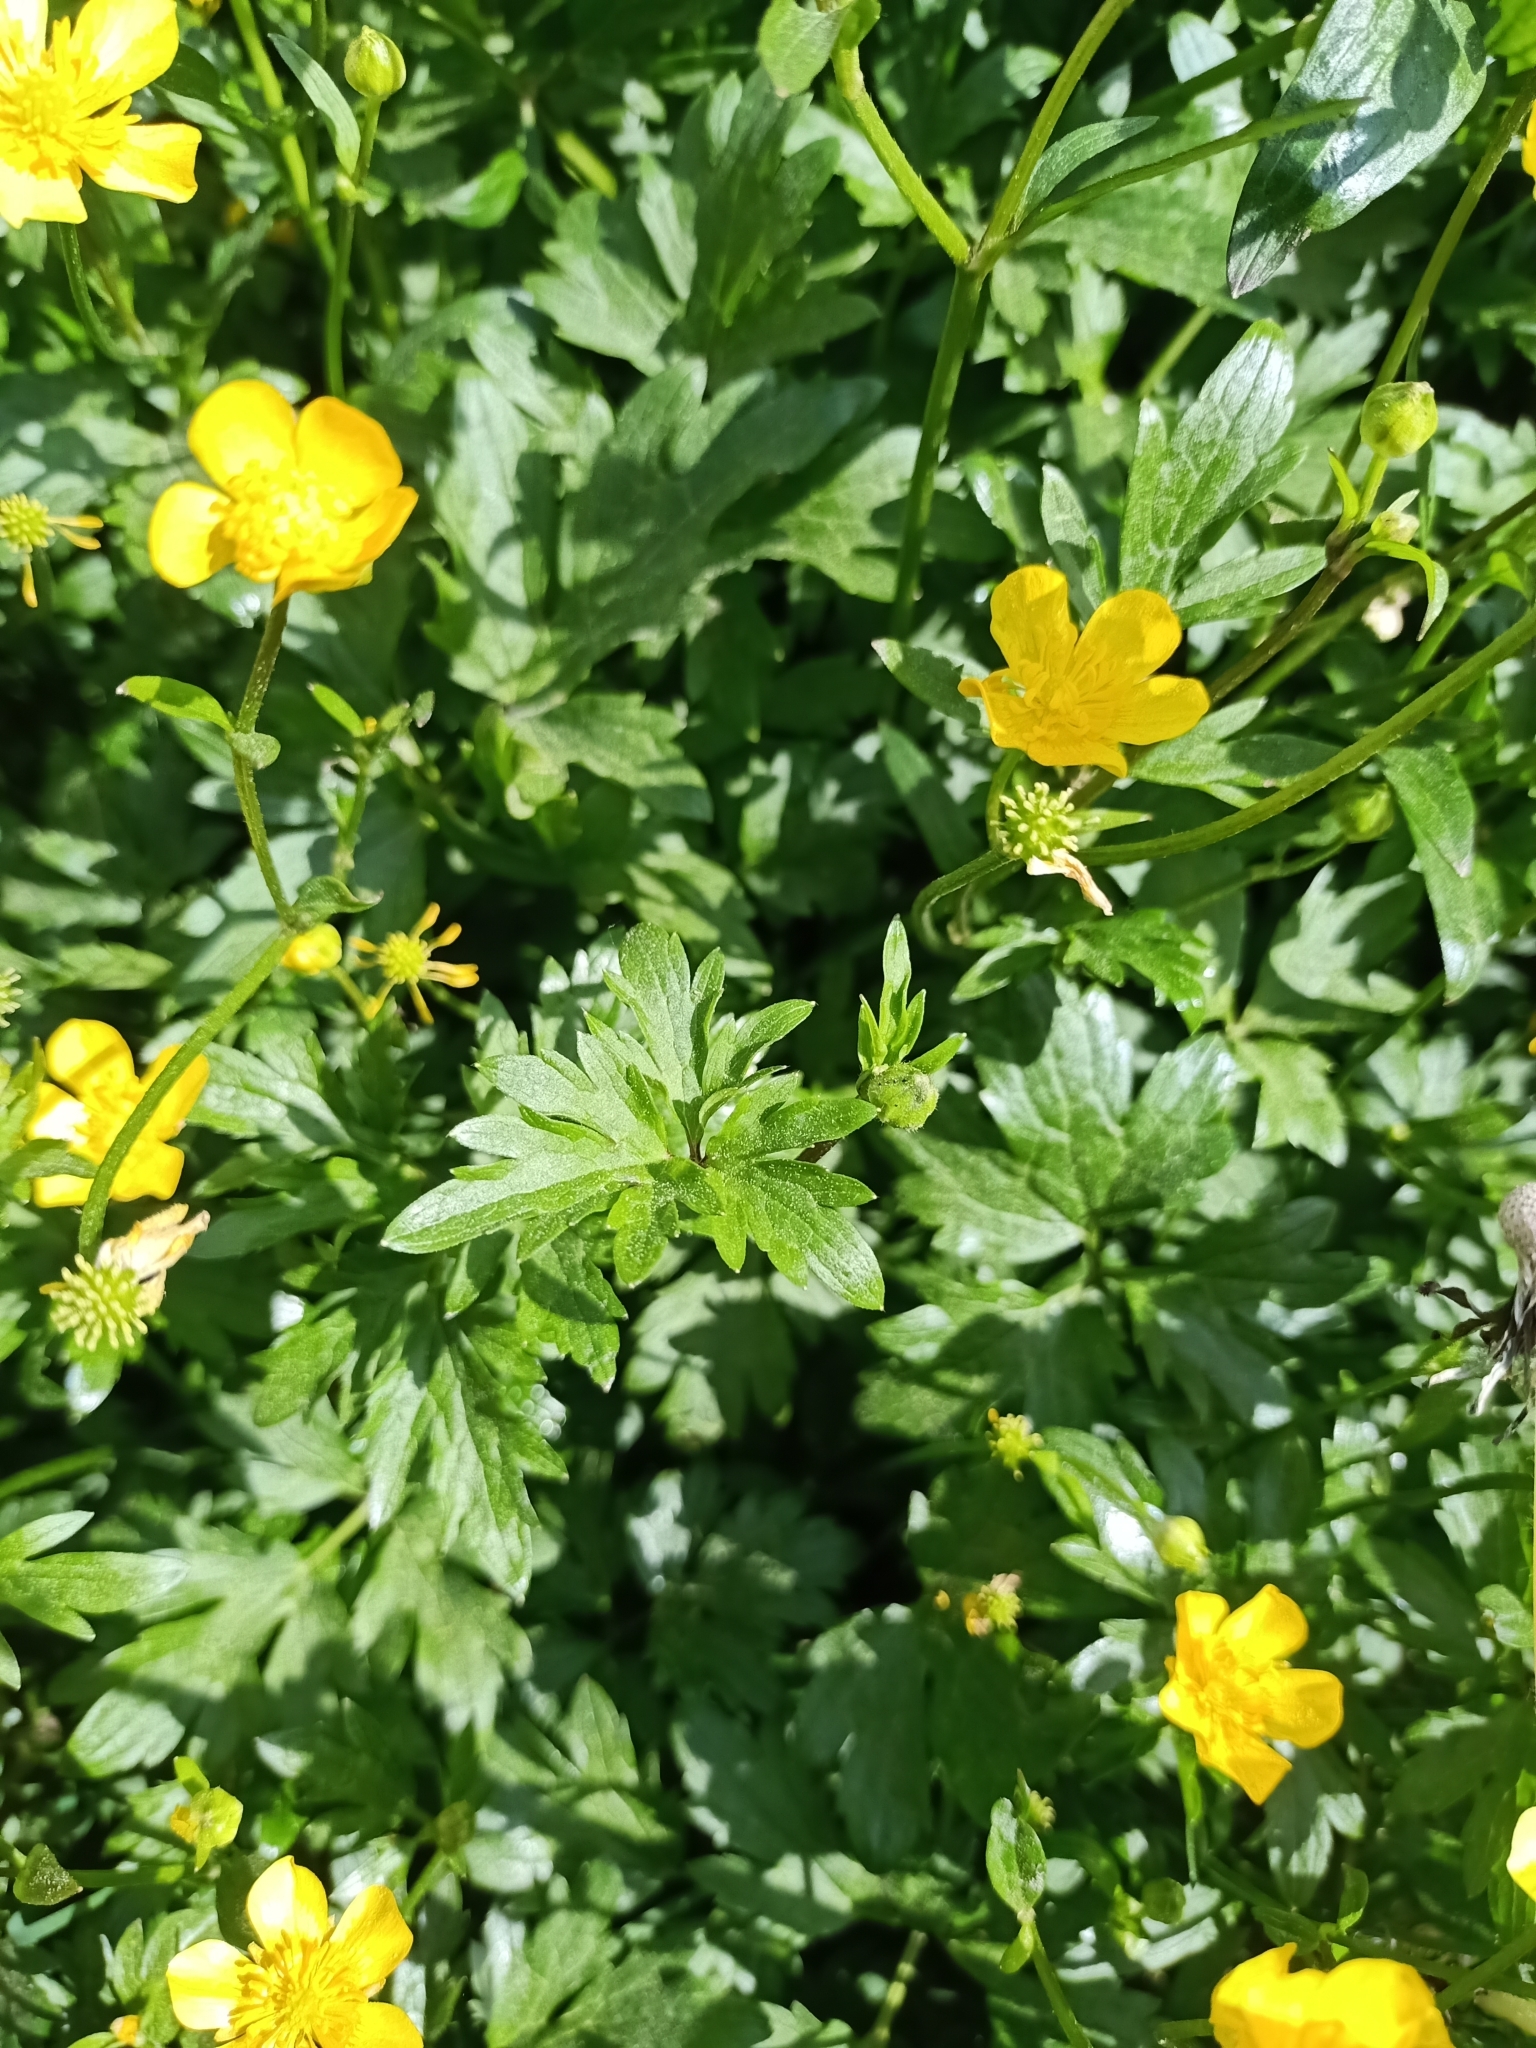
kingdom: Plantae
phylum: Tracheophyta
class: Magnoliopsida
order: Ranunculales
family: Ranunculaceae
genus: Ranunculus
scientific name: Ranunculus repens
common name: Creeping buttercup
